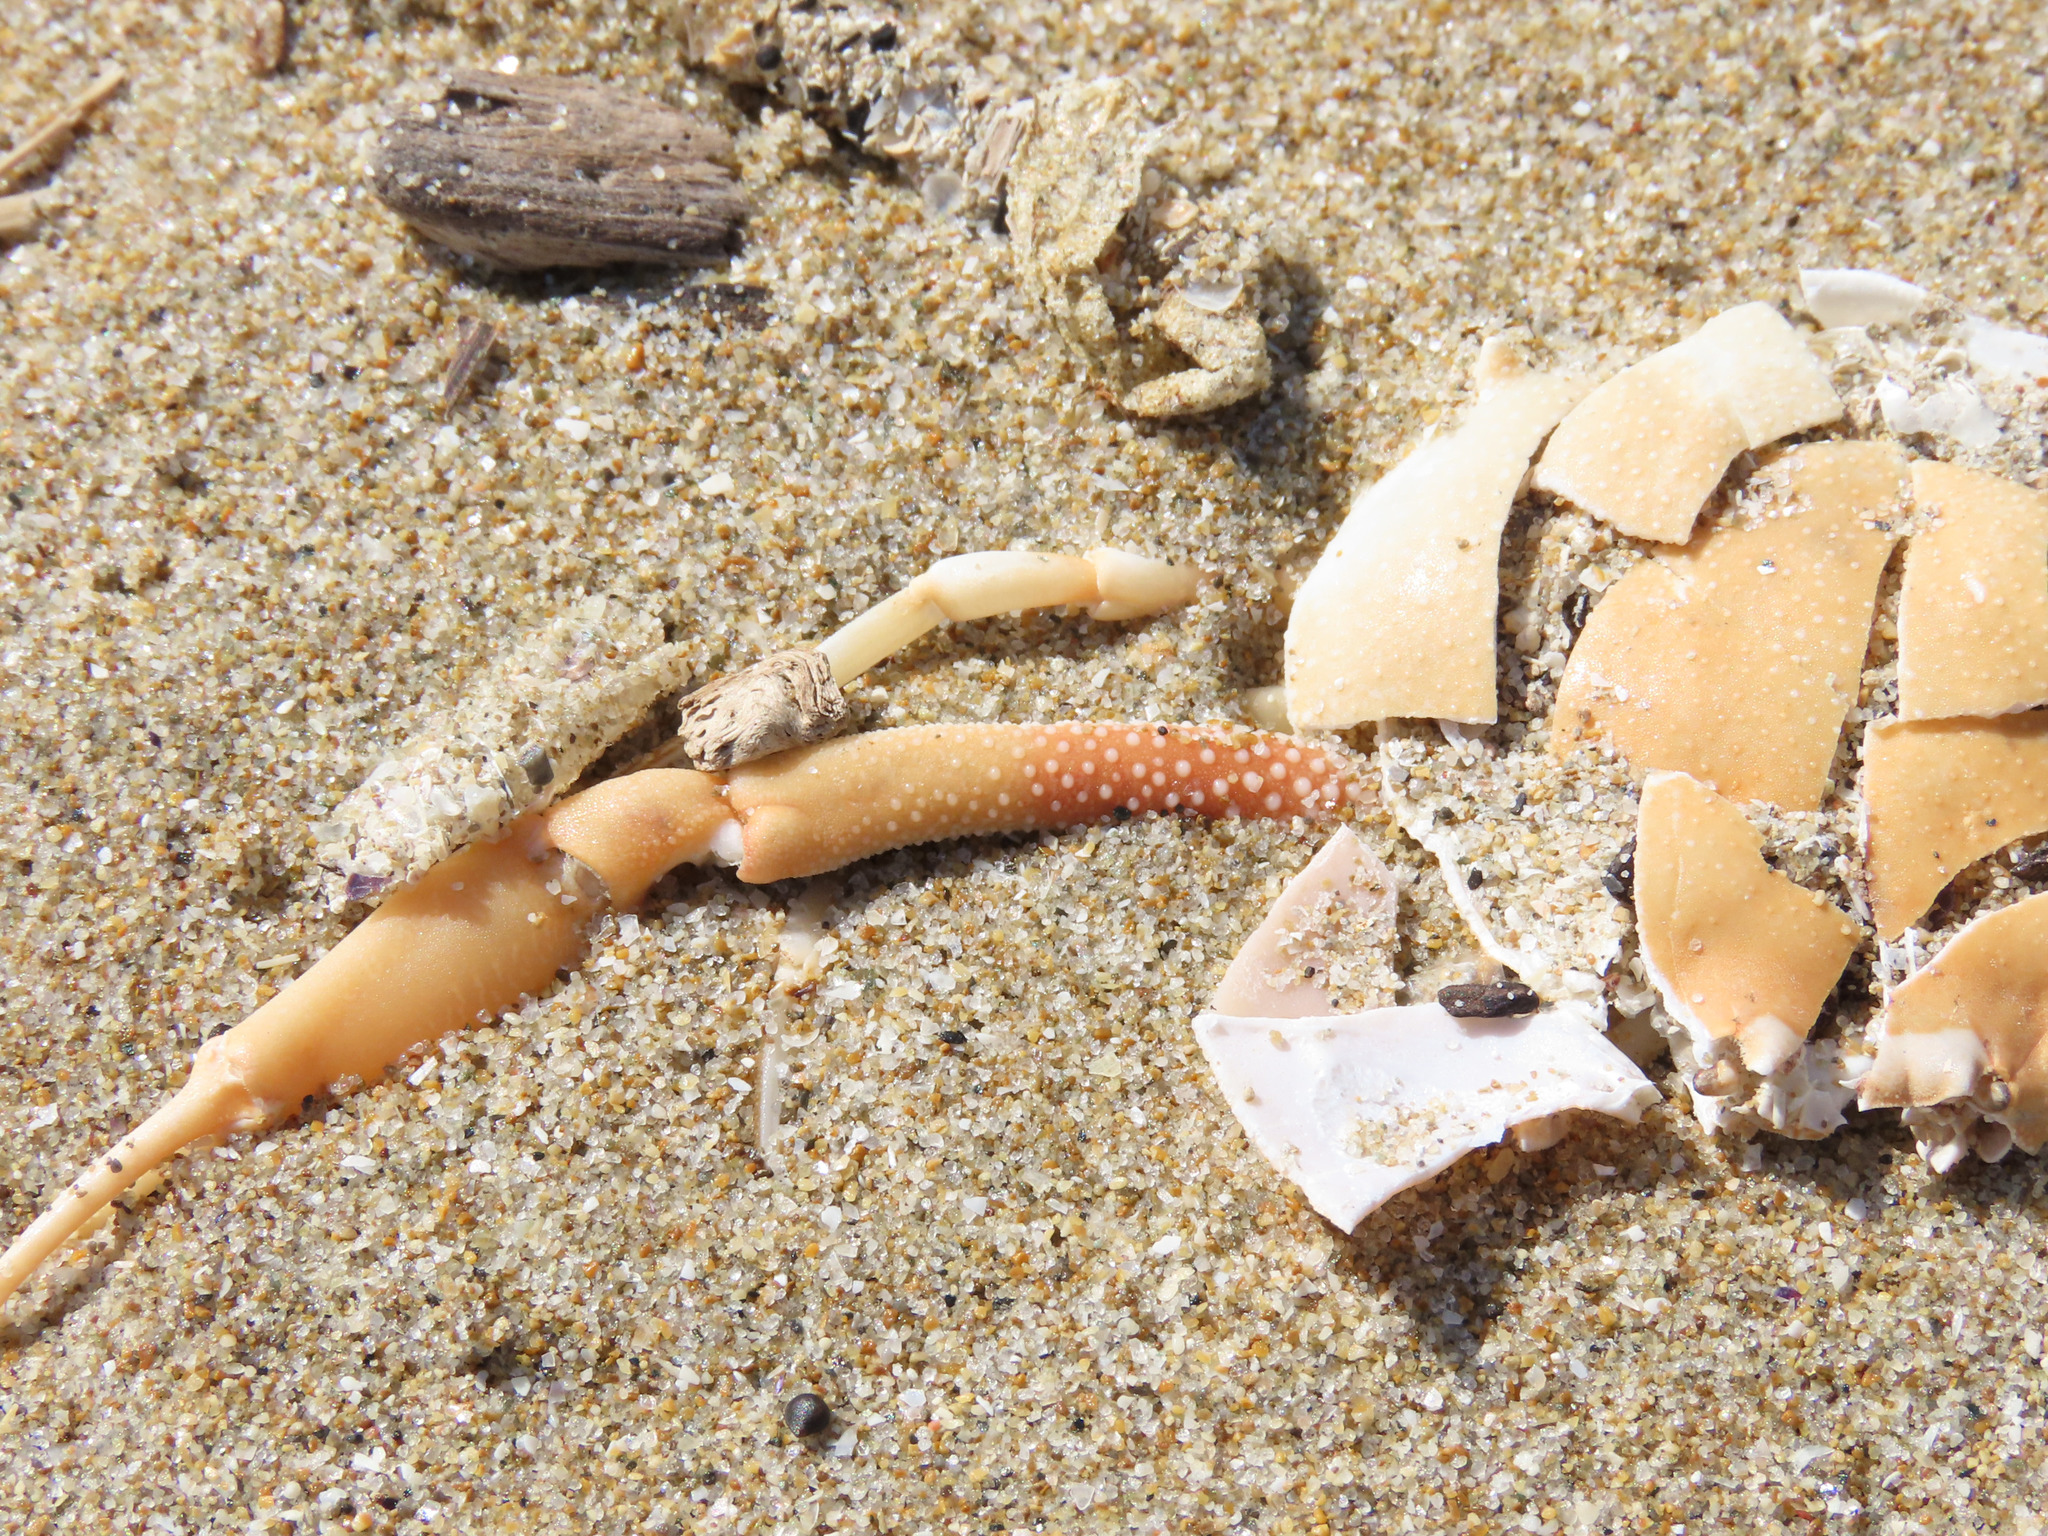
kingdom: Animalia
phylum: Arthropoda
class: Malacostraca
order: Decapoda
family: Leucosiidae
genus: Ilia
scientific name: Ilia nucleus
